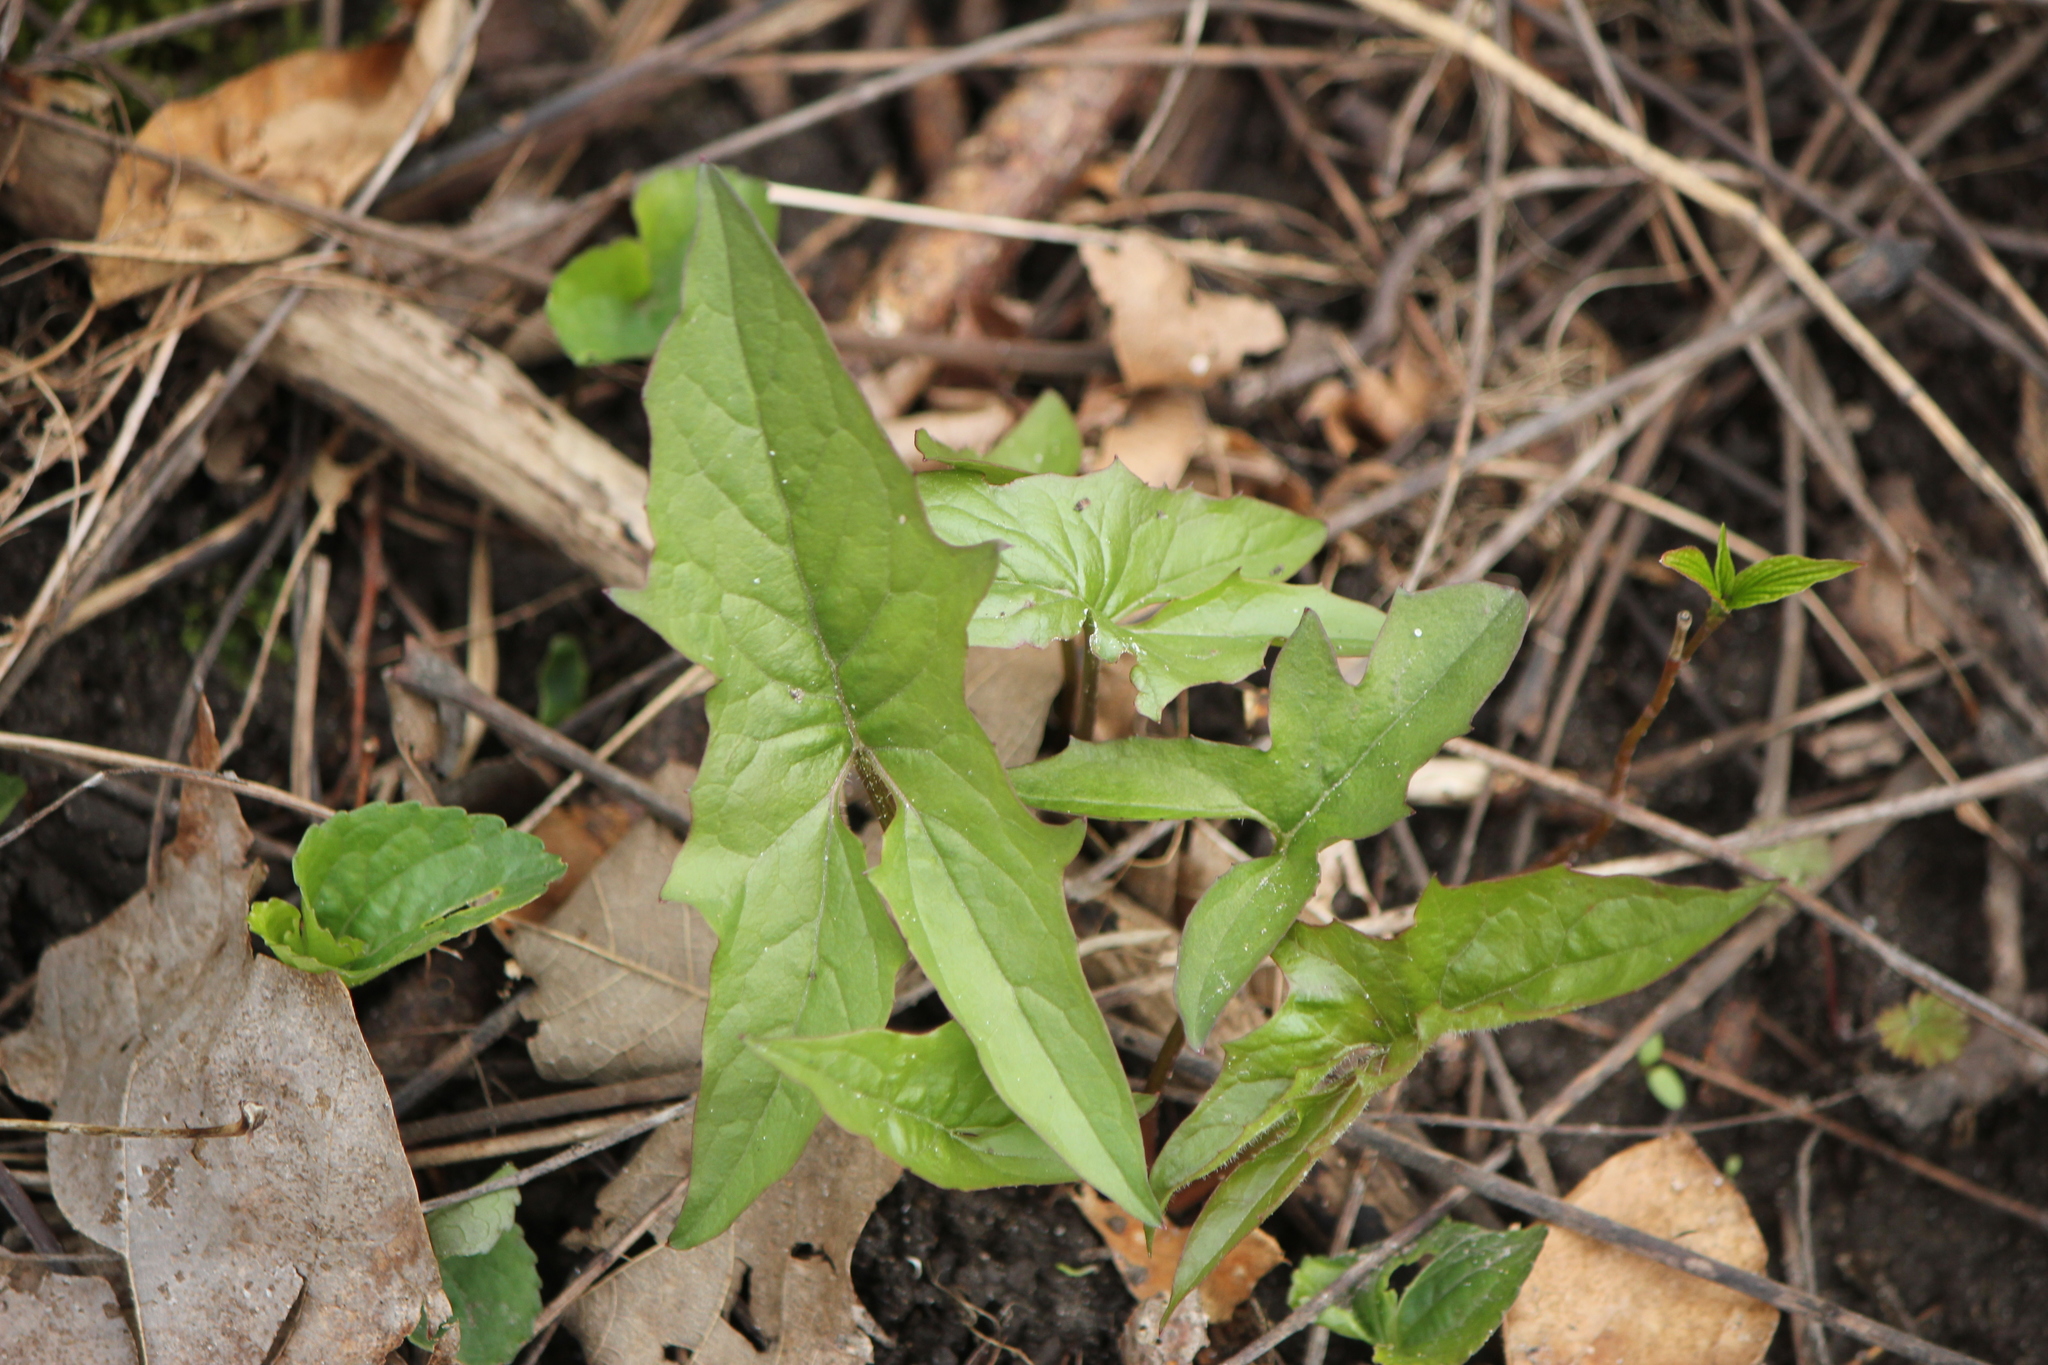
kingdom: Plantae
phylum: Tracheophyta
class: Magnoliopsida
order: Asterales
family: Asteraceae
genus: Nabalus
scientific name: Nabalus albus
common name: White rattlesnakeroot
